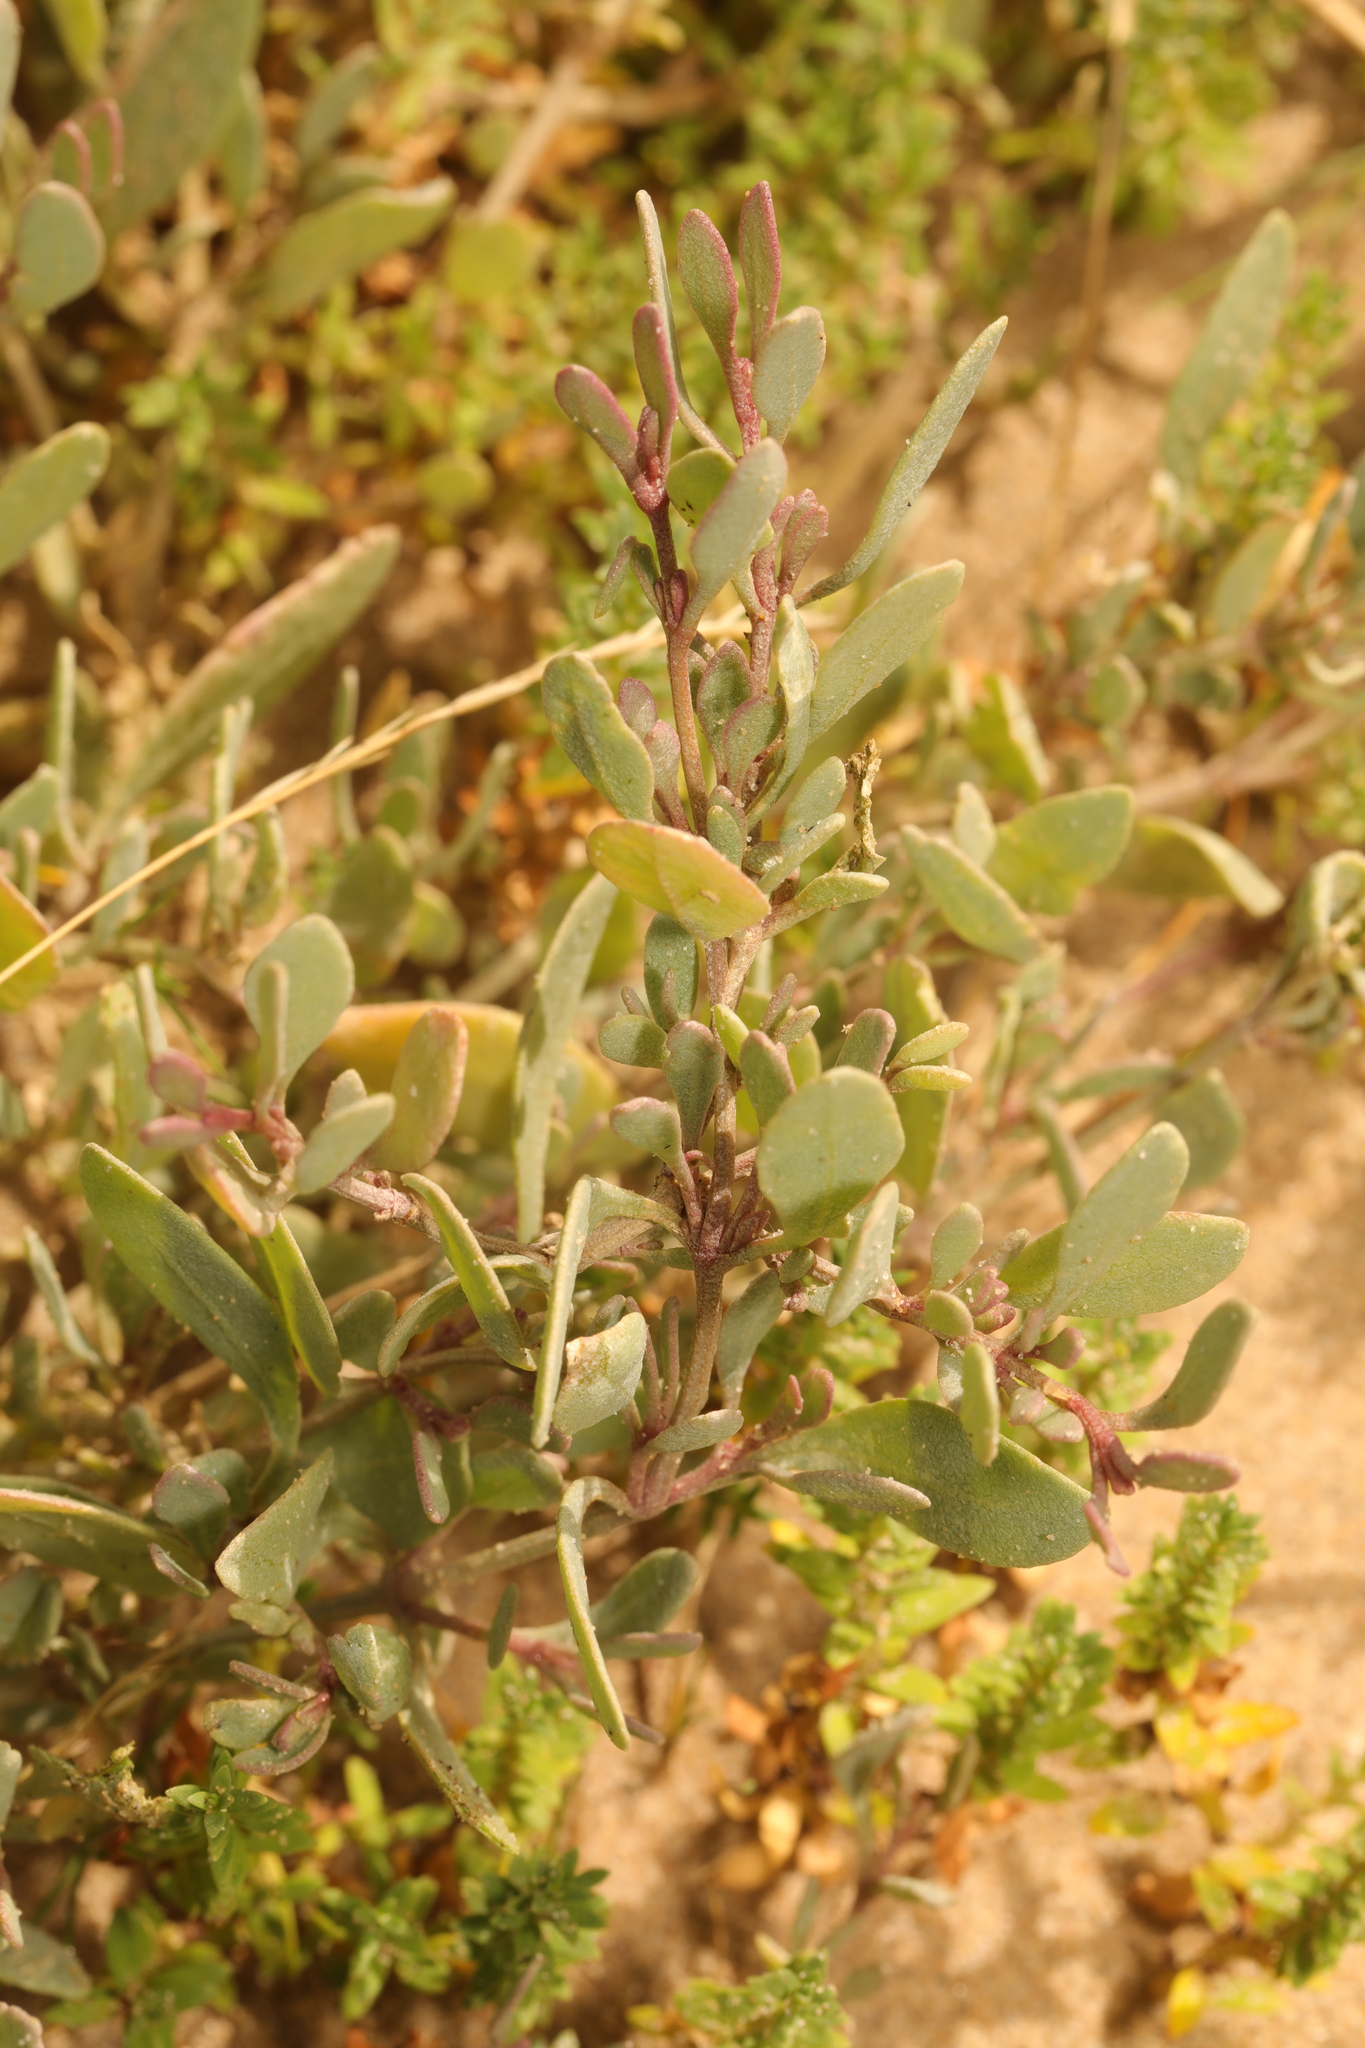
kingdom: Plantae
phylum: Tracheophyta
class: Magnoliopsida
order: Caryophyllales
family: Amaranthaceae
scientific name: Amaranthaceae
